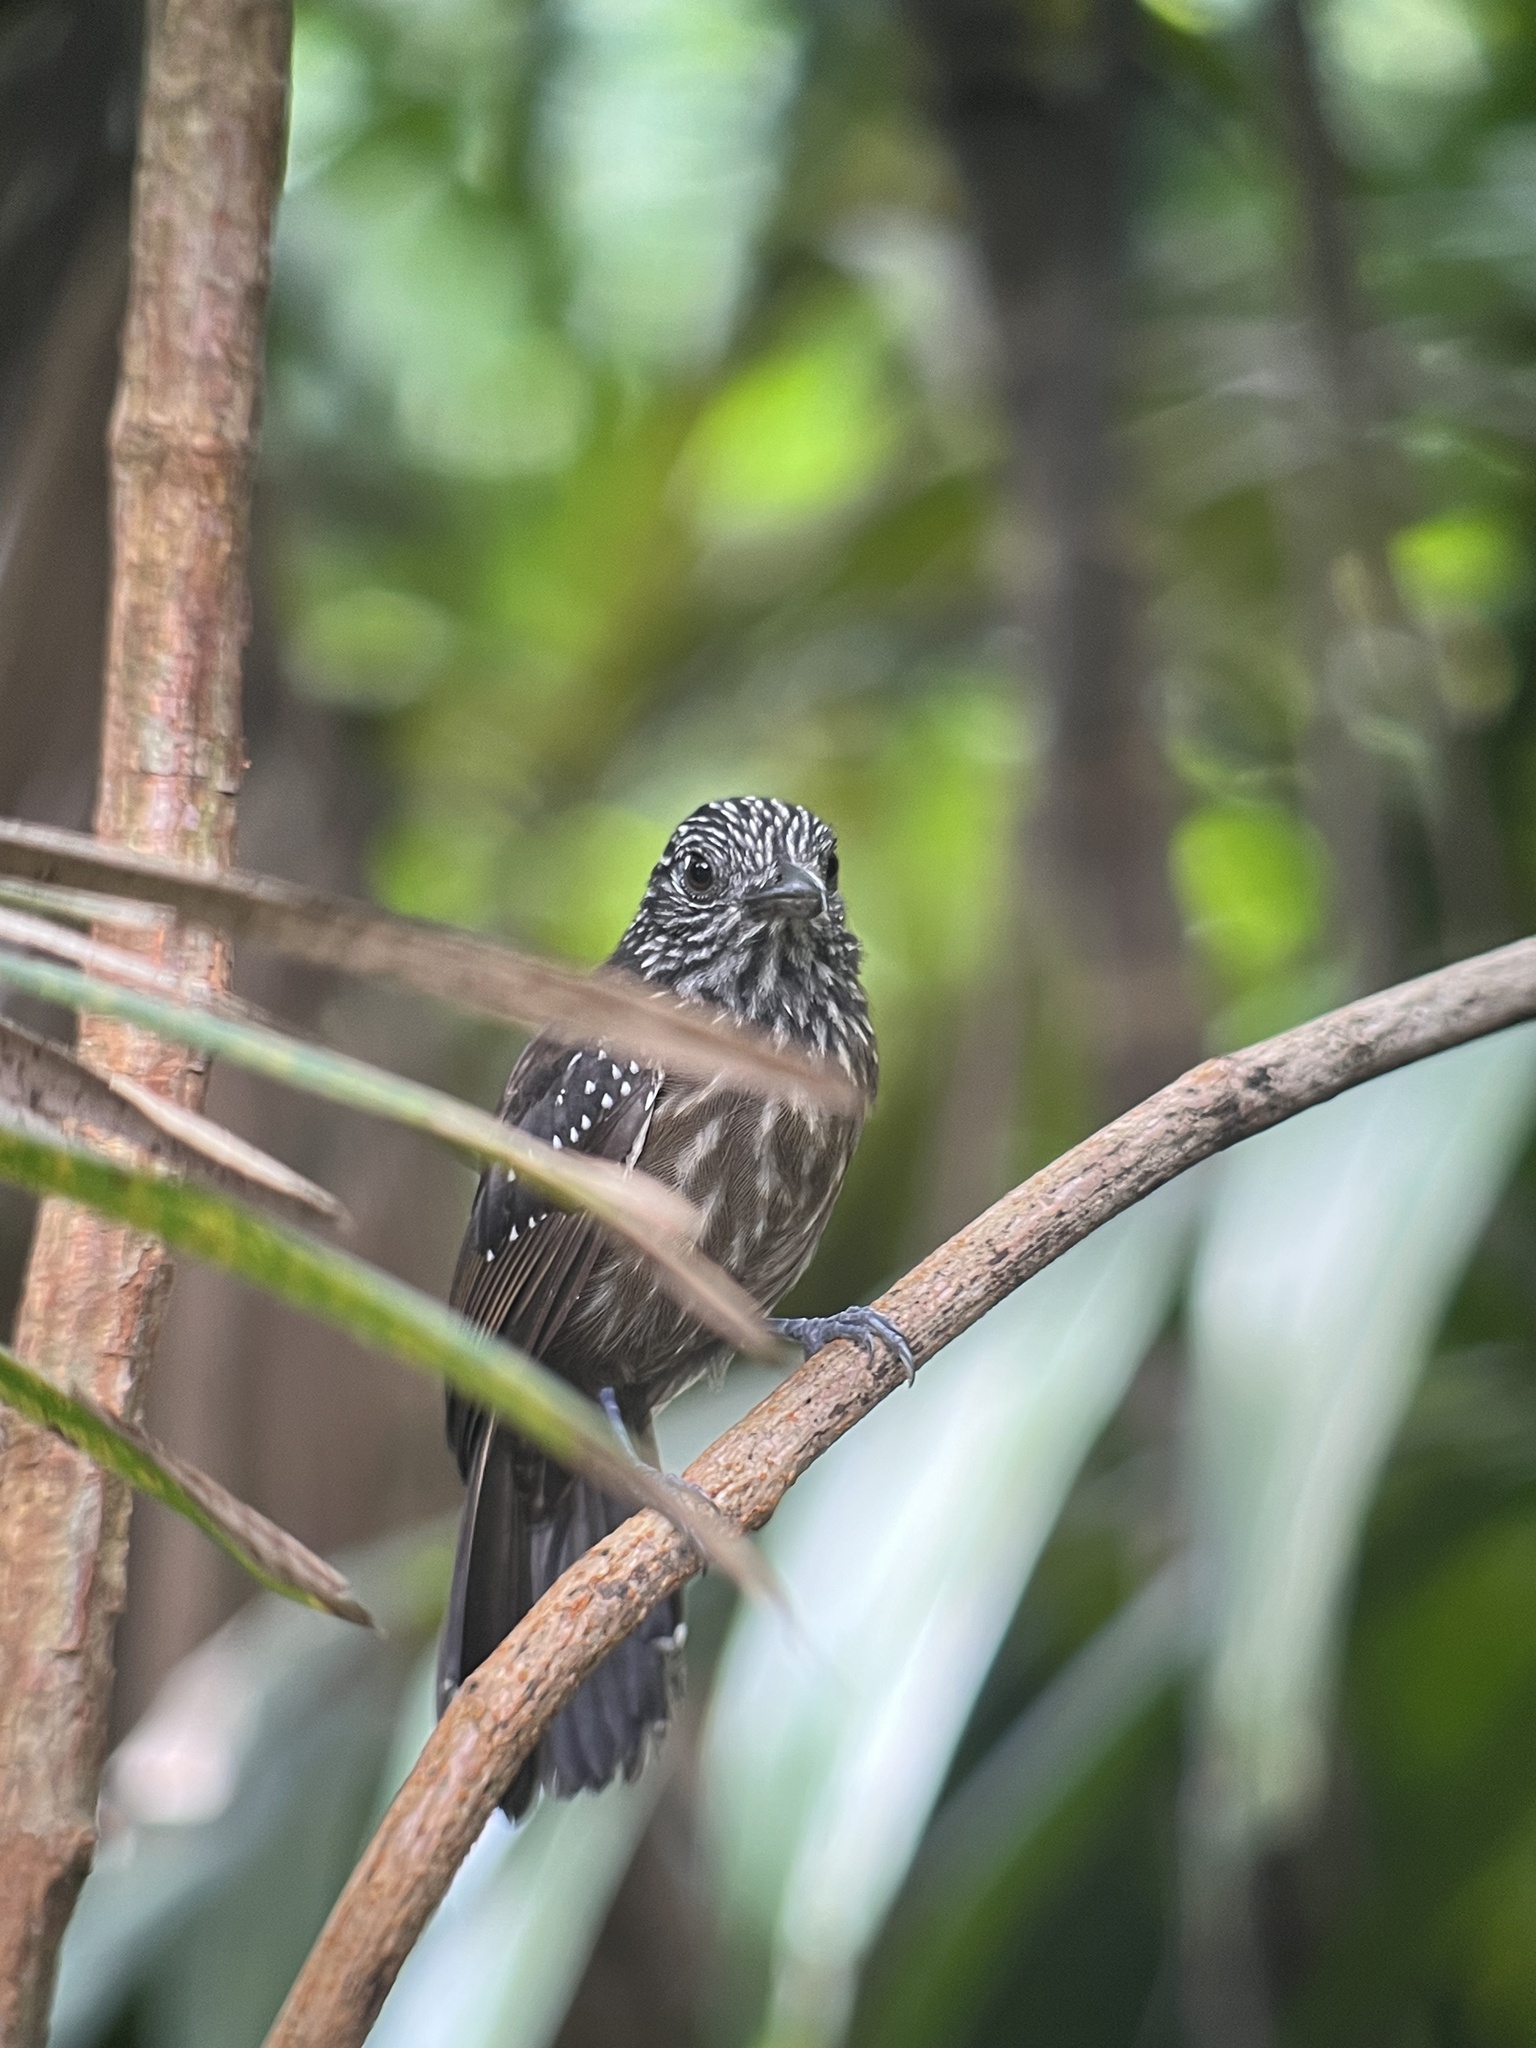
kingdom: Animalia
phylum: Chordata
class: Aves
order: Passeriformes
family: Thamnophilidae
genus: Thamnophilus
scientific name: Thamnophilus bridgesi
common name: Black-hooded antshrike
